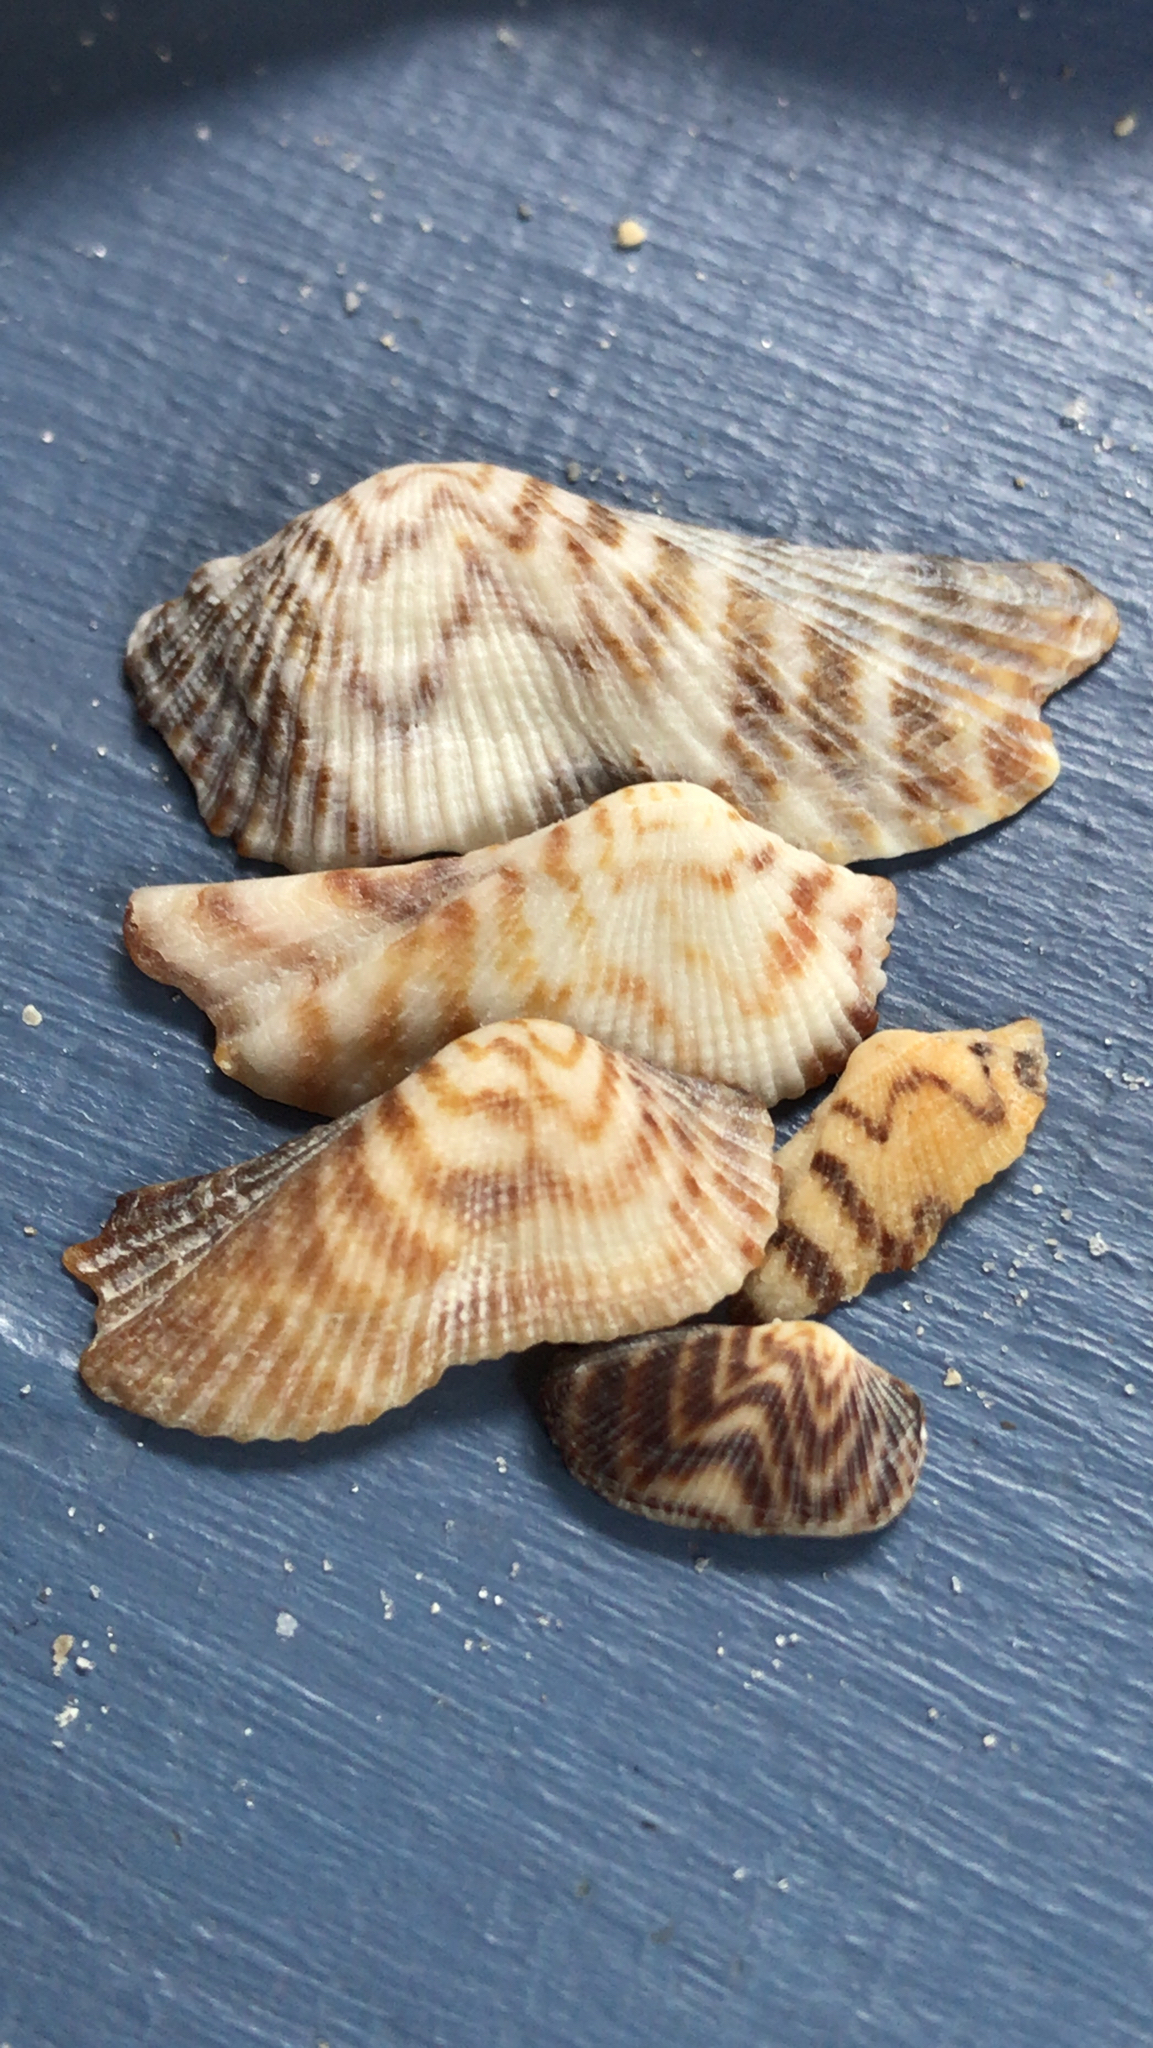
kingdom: Animalia
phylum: Mollusca
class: Bivalvia
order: Arcida
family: Arcidae
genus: Arca
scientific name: Arca zebra
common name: Atlantic turkey wing
